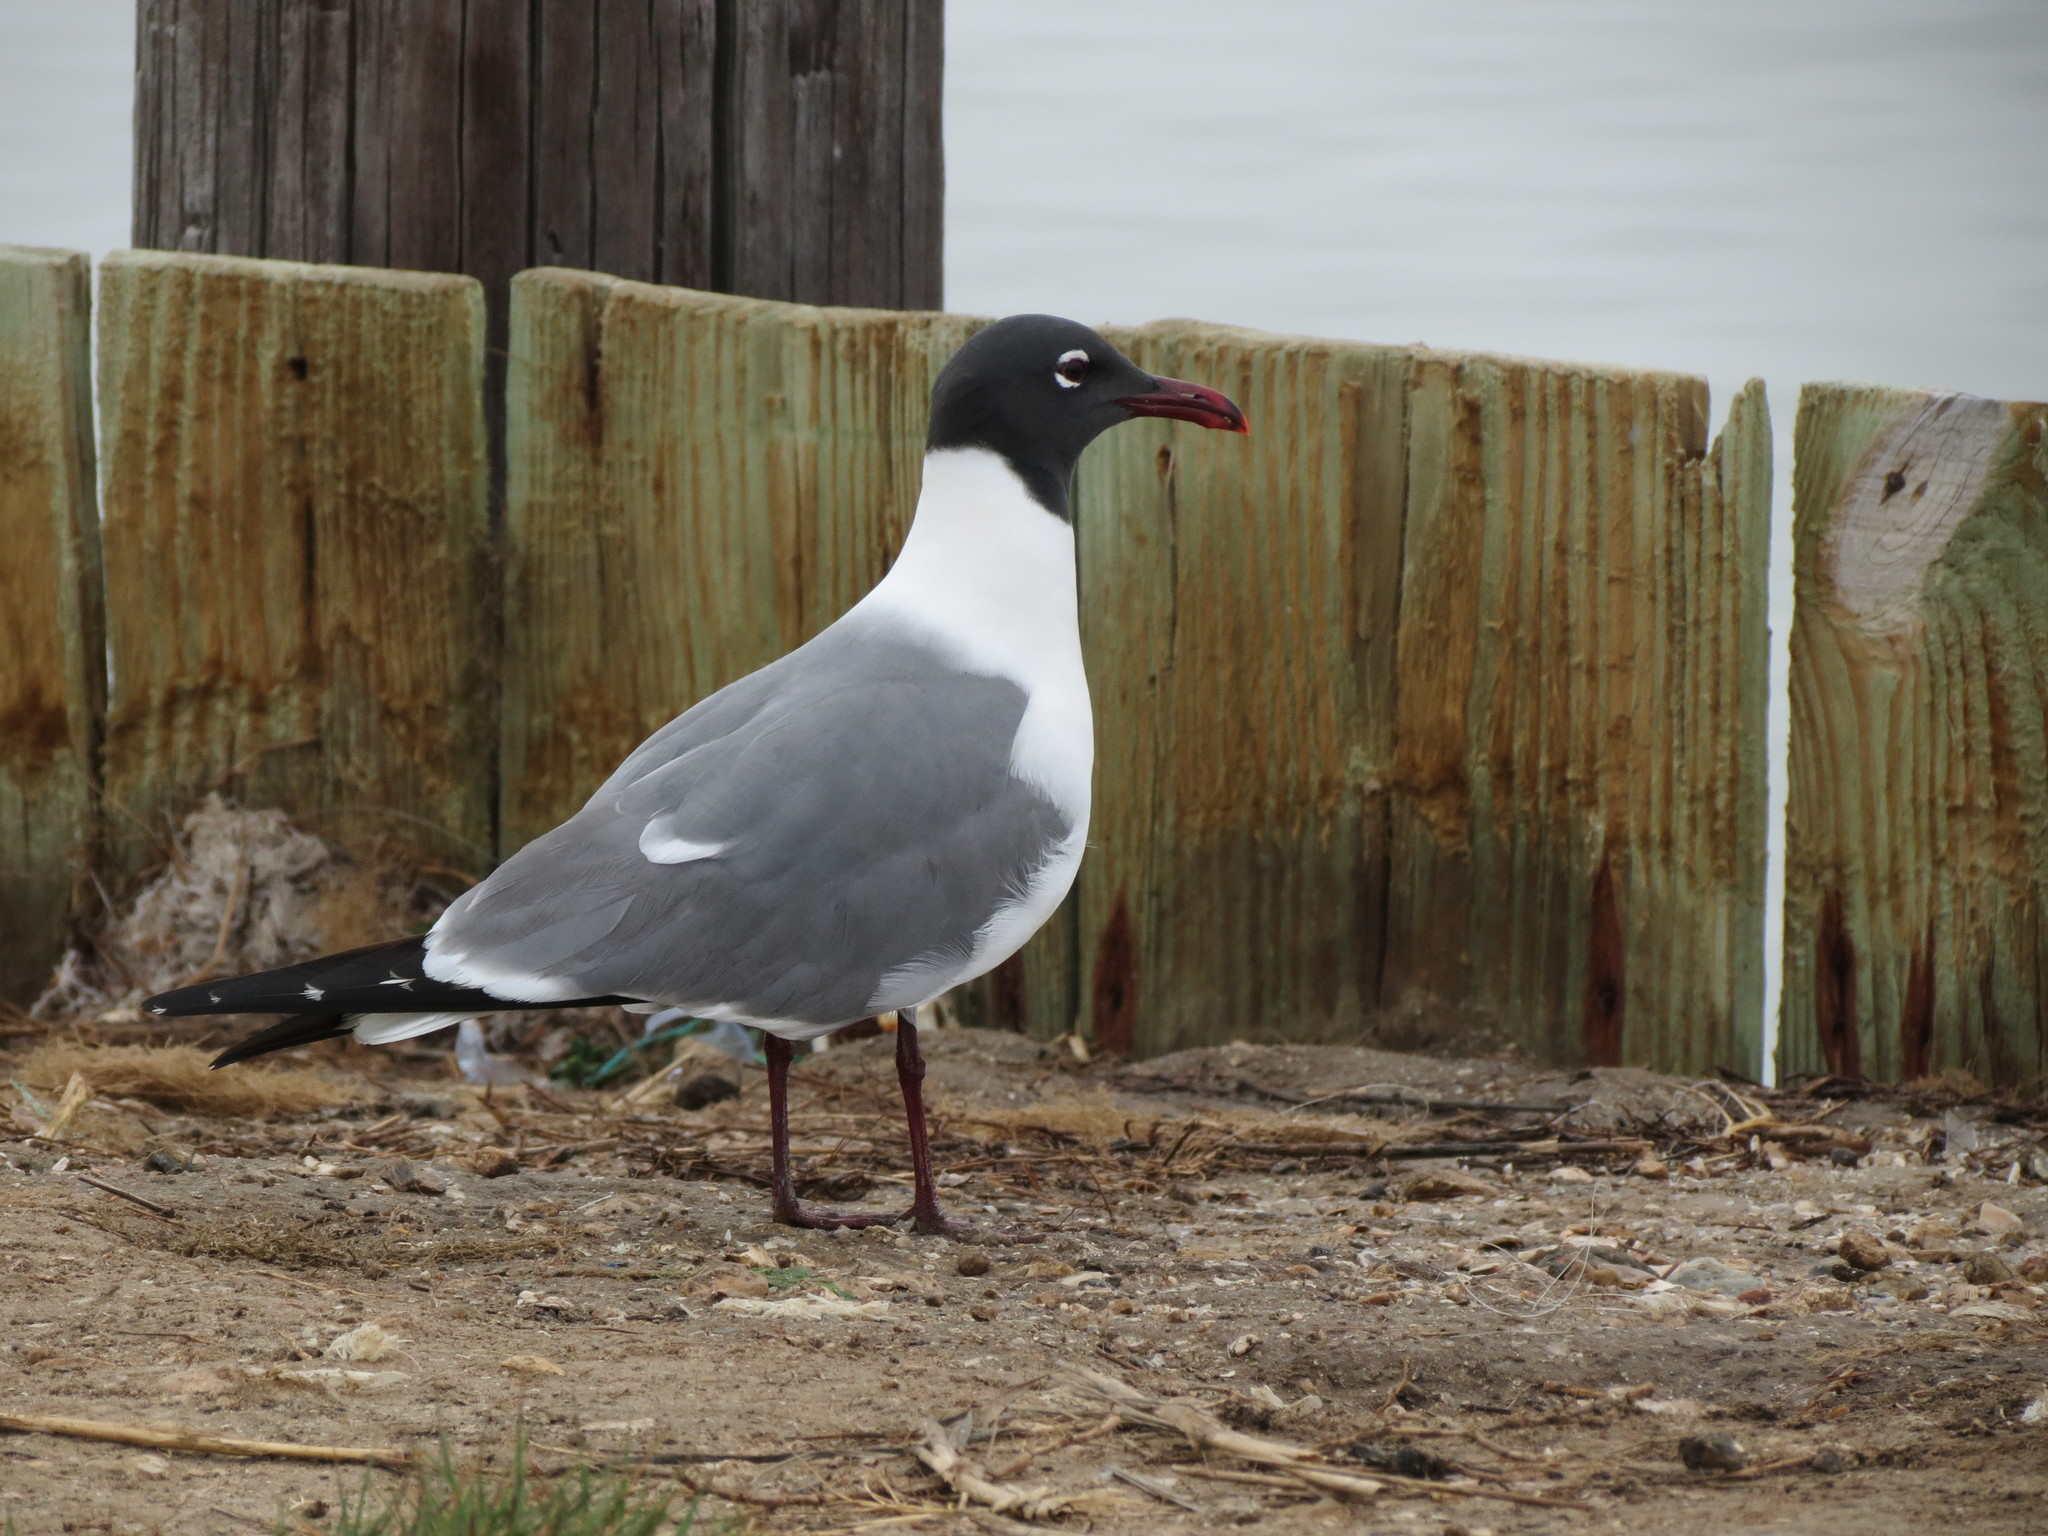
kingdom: Animalia
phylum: Chordata
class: Aves
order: Charadriiformes
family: Laridae
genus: Leucophaeus
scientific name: Leucophaeus atricilla
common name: Laughing gull
